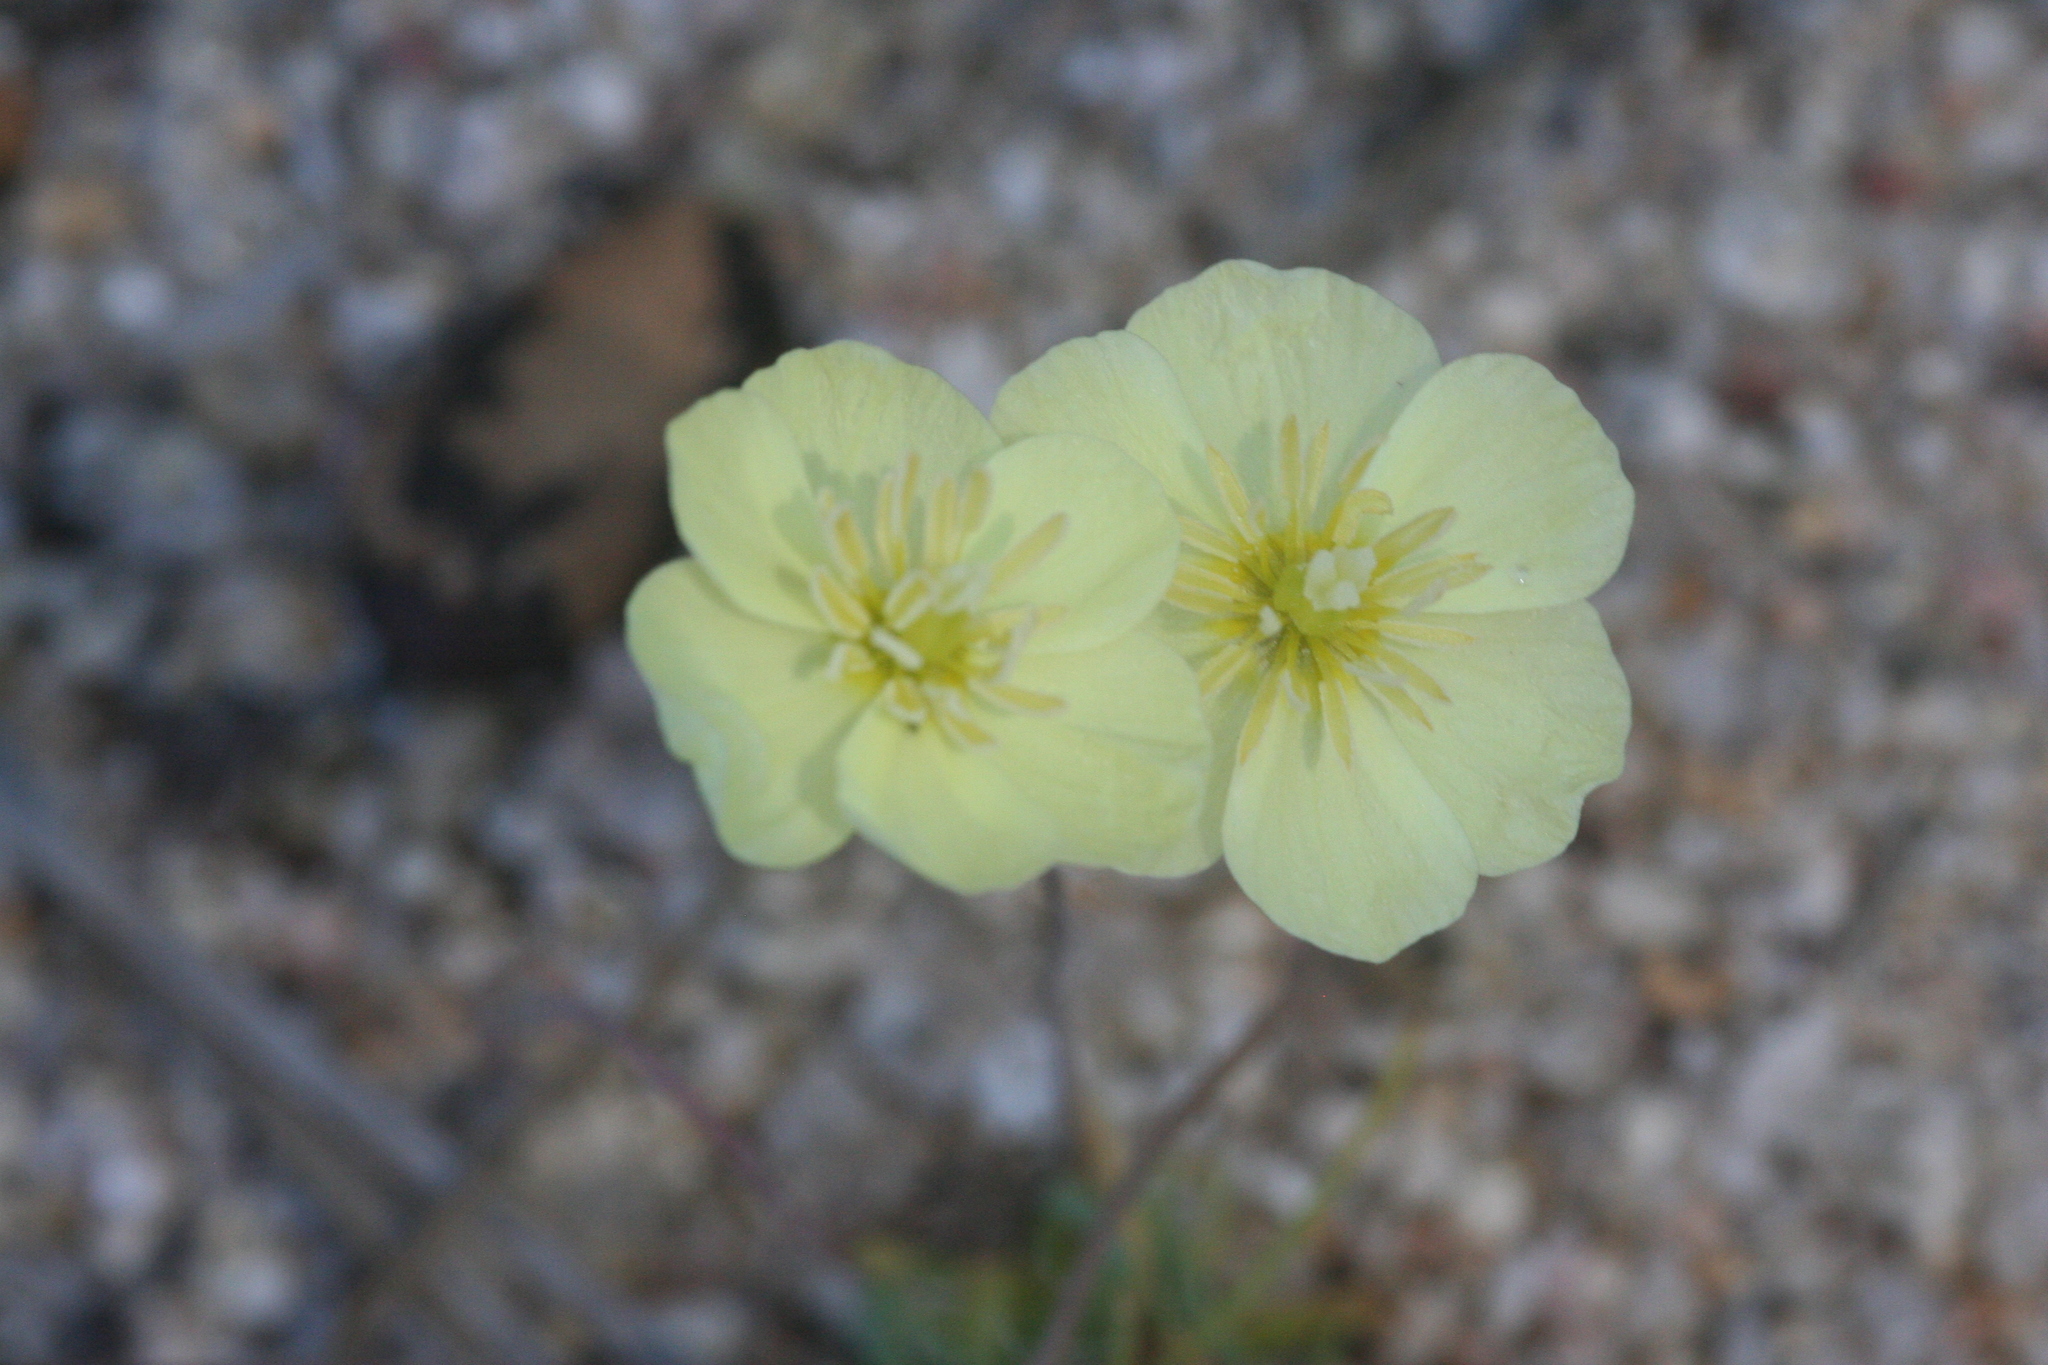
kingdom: Plantae
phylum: Tracheophyta
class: Magnoliopsida
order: Ranunculales
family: Papaveraceae
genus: Platystigma
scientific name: Platystigma lineare
